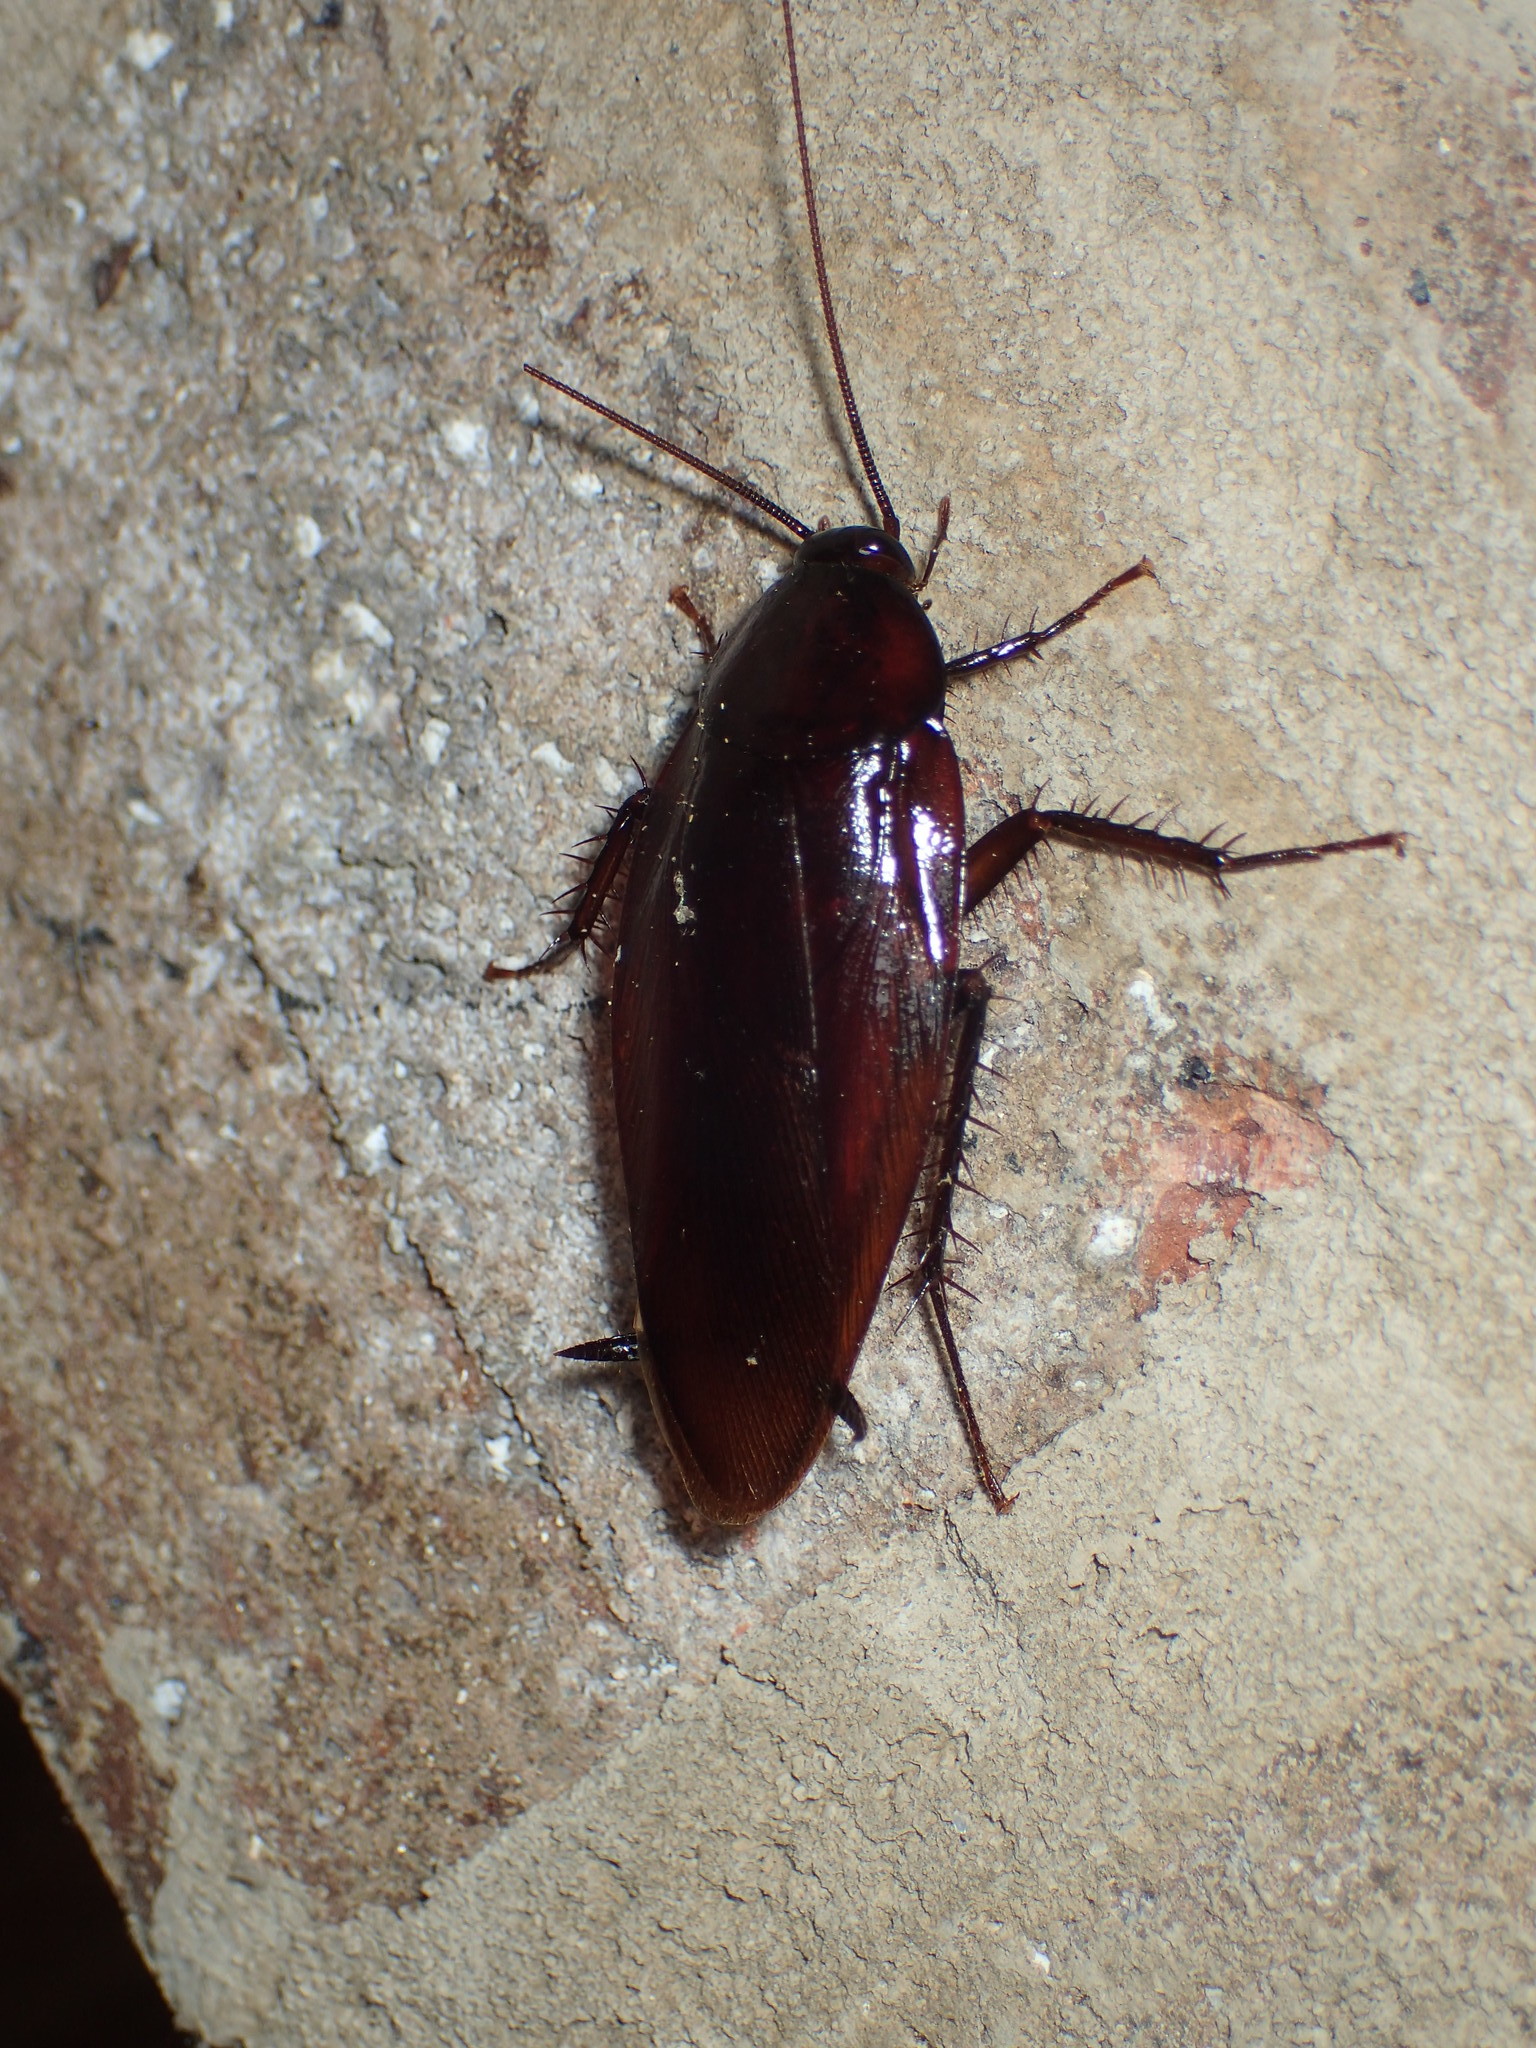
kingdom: Animalia
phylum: Arthropoda
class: Insecta
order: Blattodea
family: Blattidae
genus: Periplaneta
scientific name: Periplaneta fuliginosa
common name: Smokeybrown cockroad
